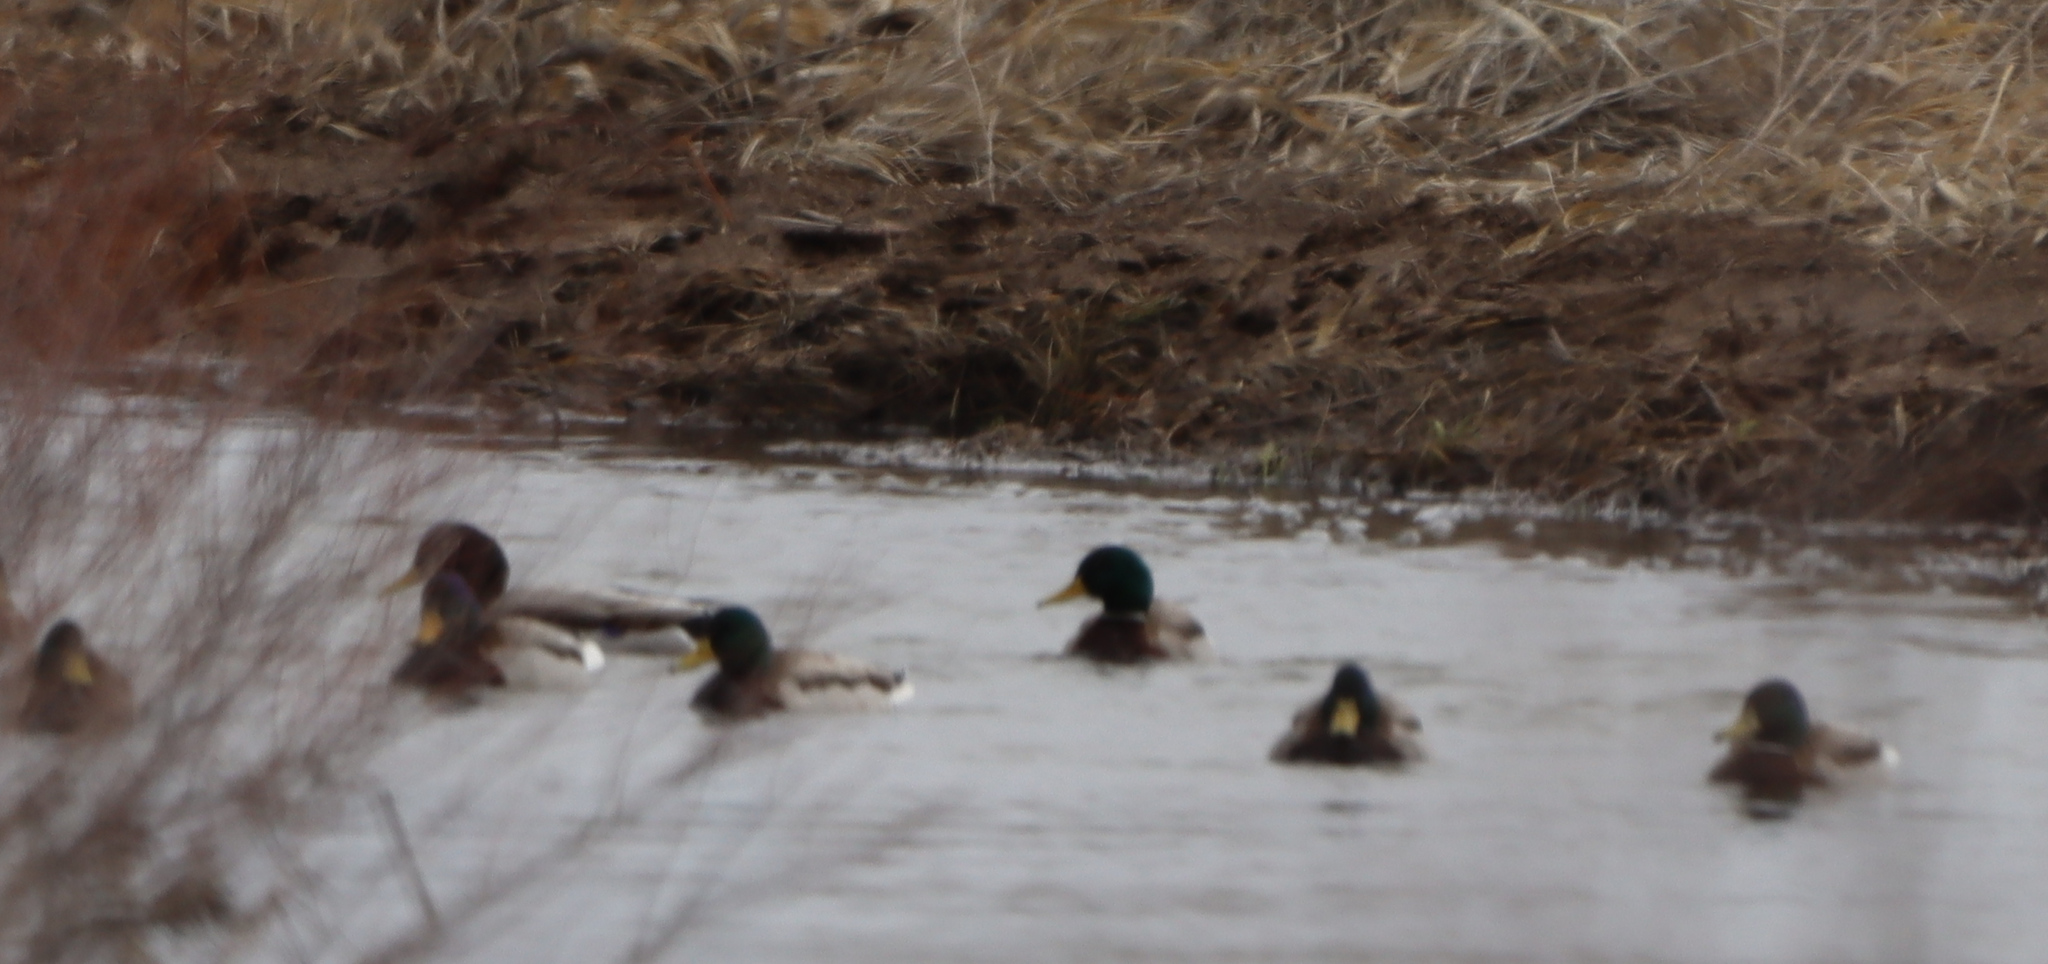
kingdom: Animalia
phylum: Chordata
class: Aves
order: Anseriformes
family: Anatidae
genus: Anas
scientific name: Anas platyrhynchos
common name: Mallard
